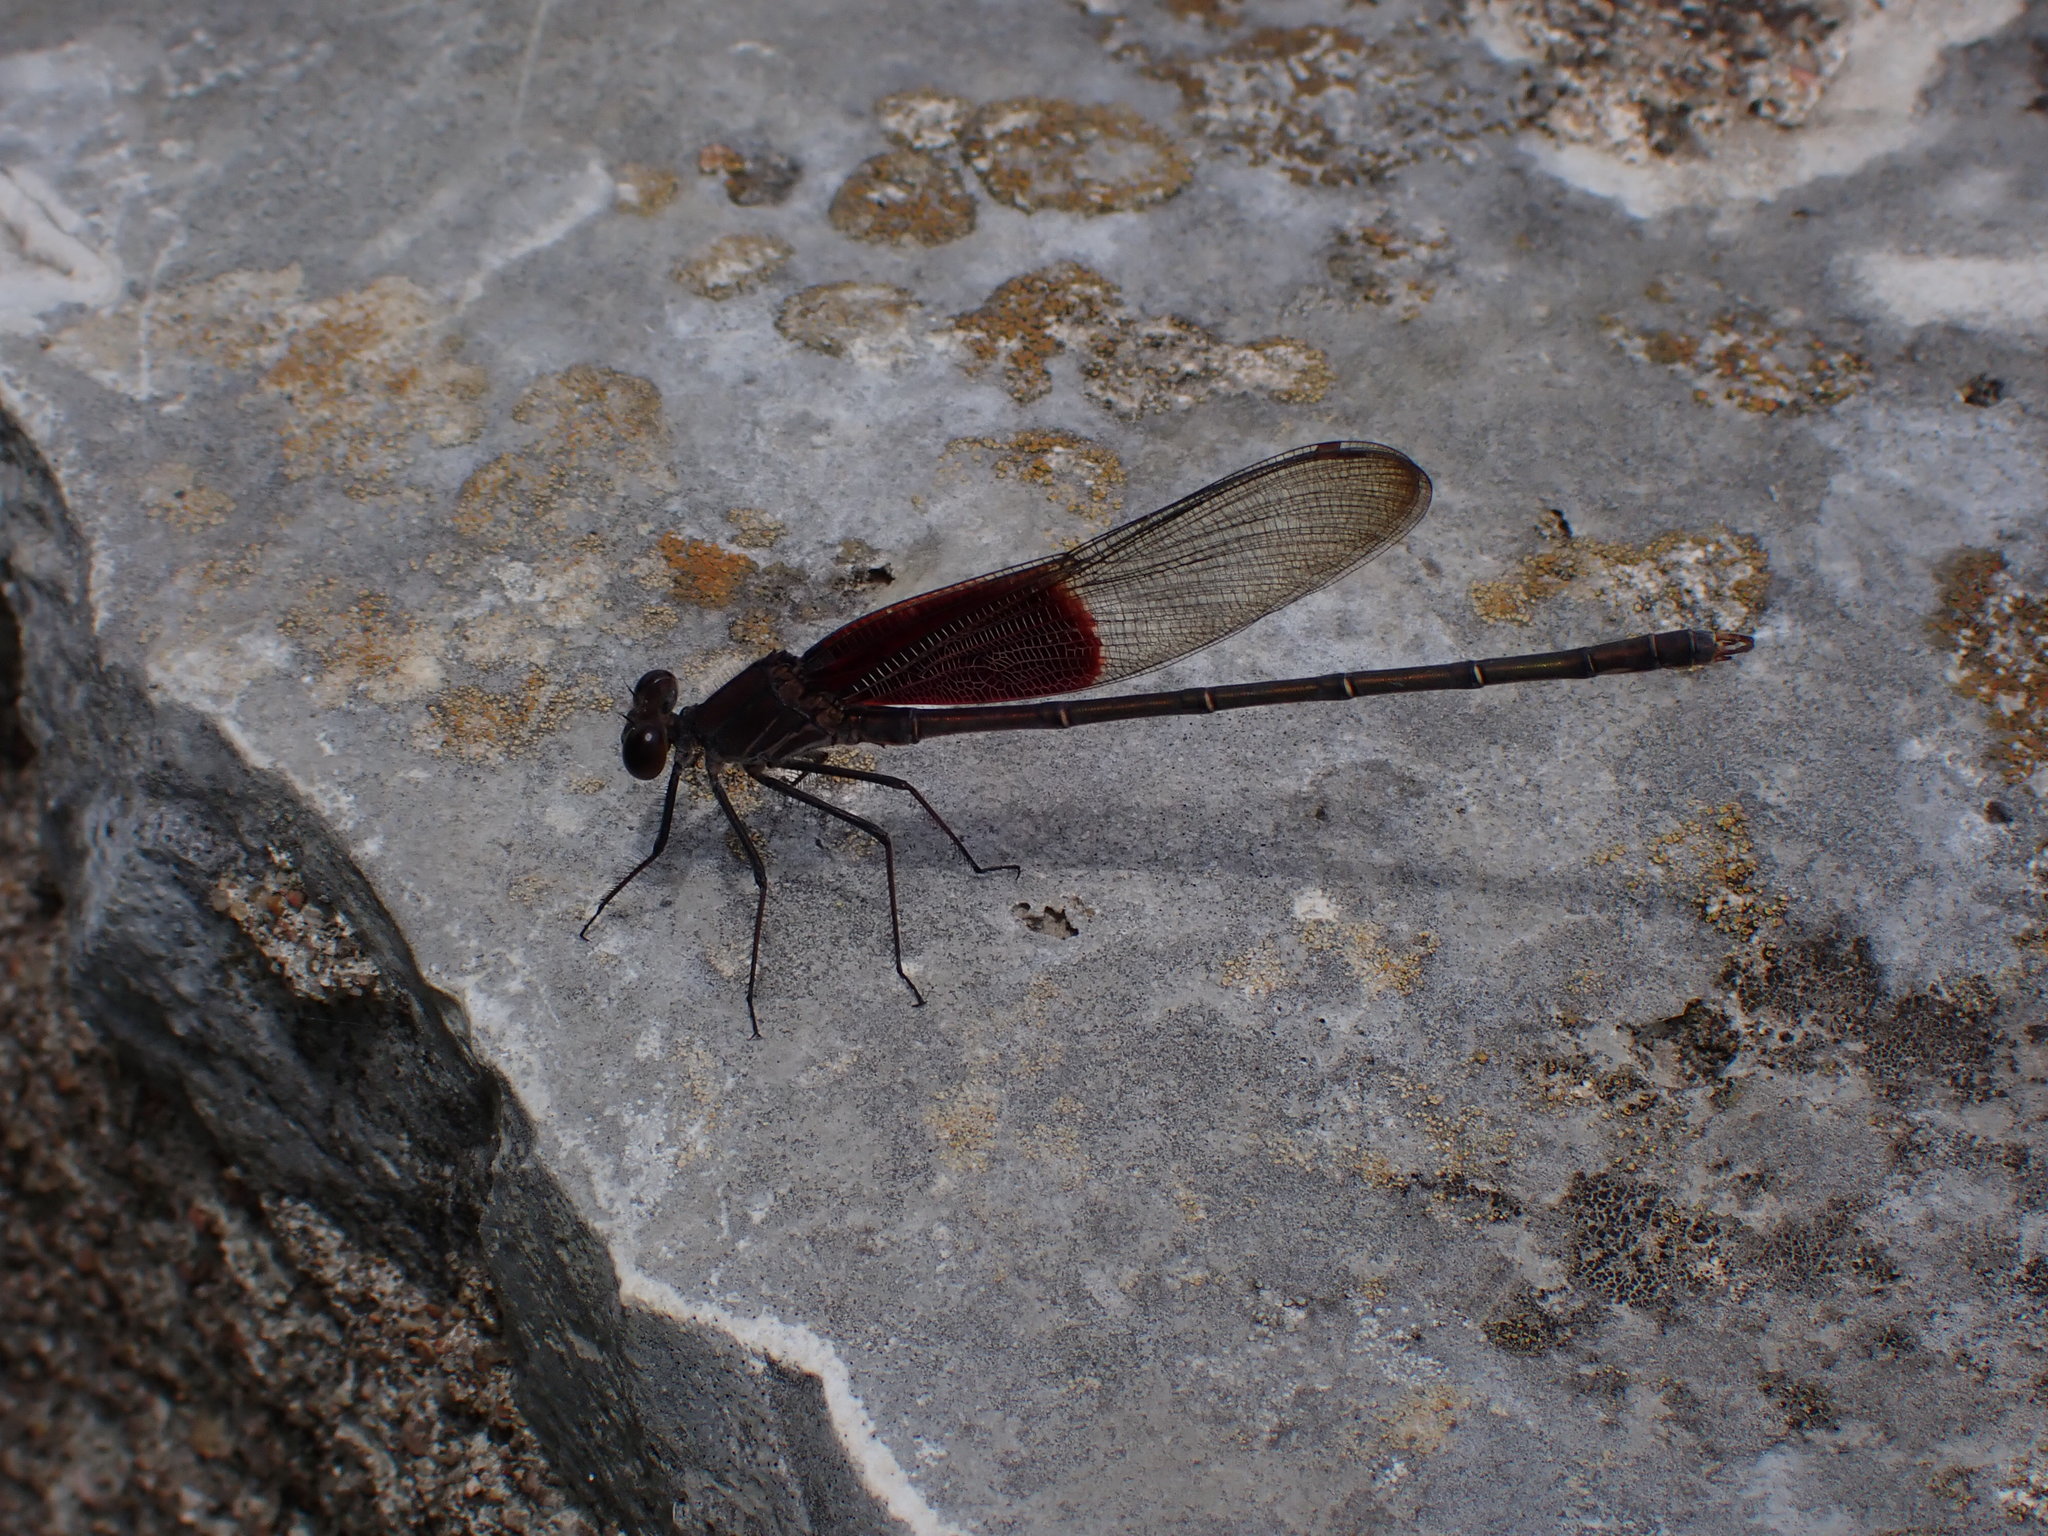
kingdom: Animalia
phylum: Arthropoda
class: Insecta
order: Odonata
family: Calopterygidae
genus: Hetaerina
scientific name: Hetaerina americana
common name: American rubyspot
